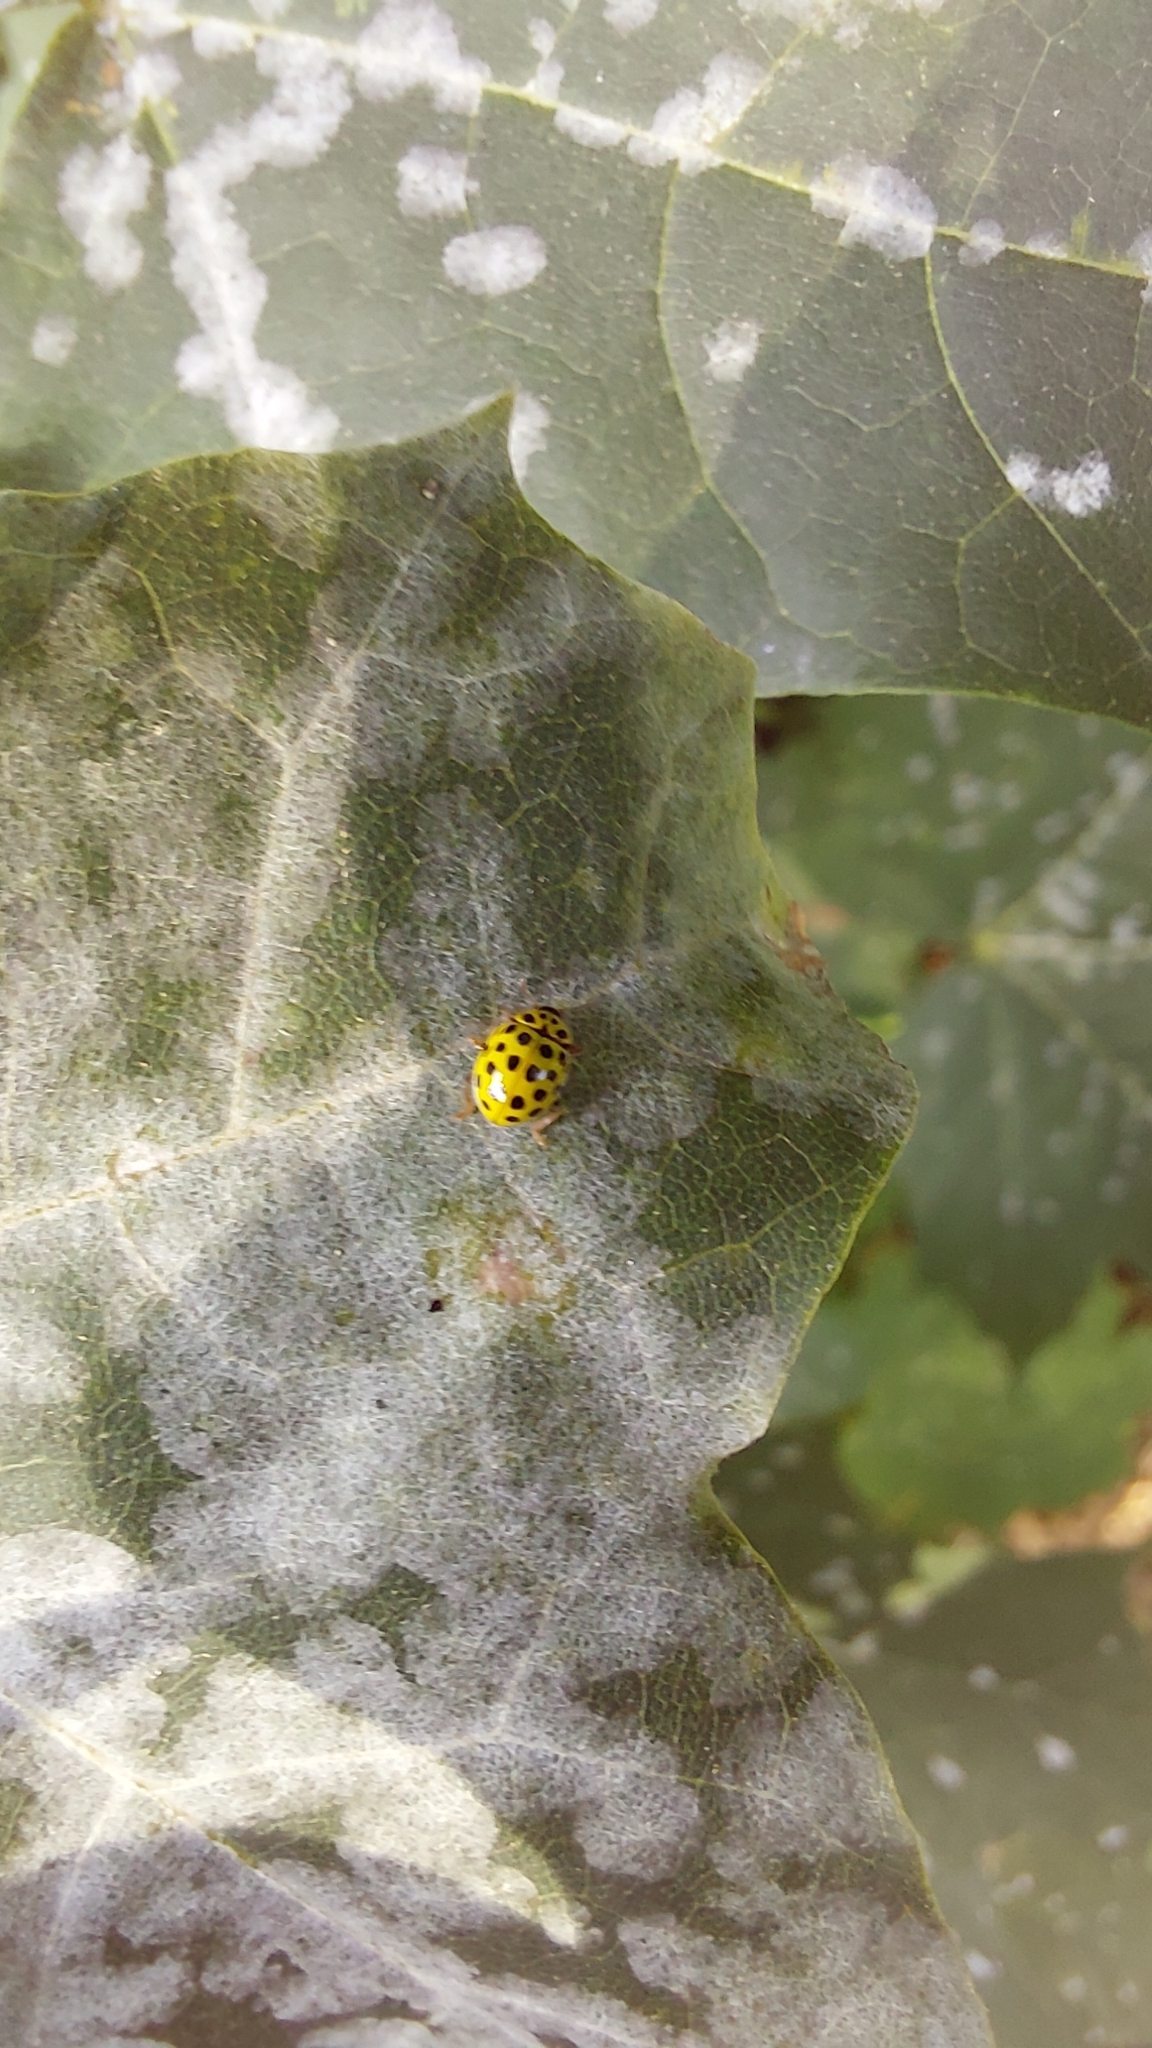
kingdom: Animalia
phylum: Arthropoda
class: Insecta
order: Coleoptera
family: Coccinellidae
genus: Psyllobora
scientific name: Psyllobora vigintiduopunctata
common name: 22-spot ladybird
